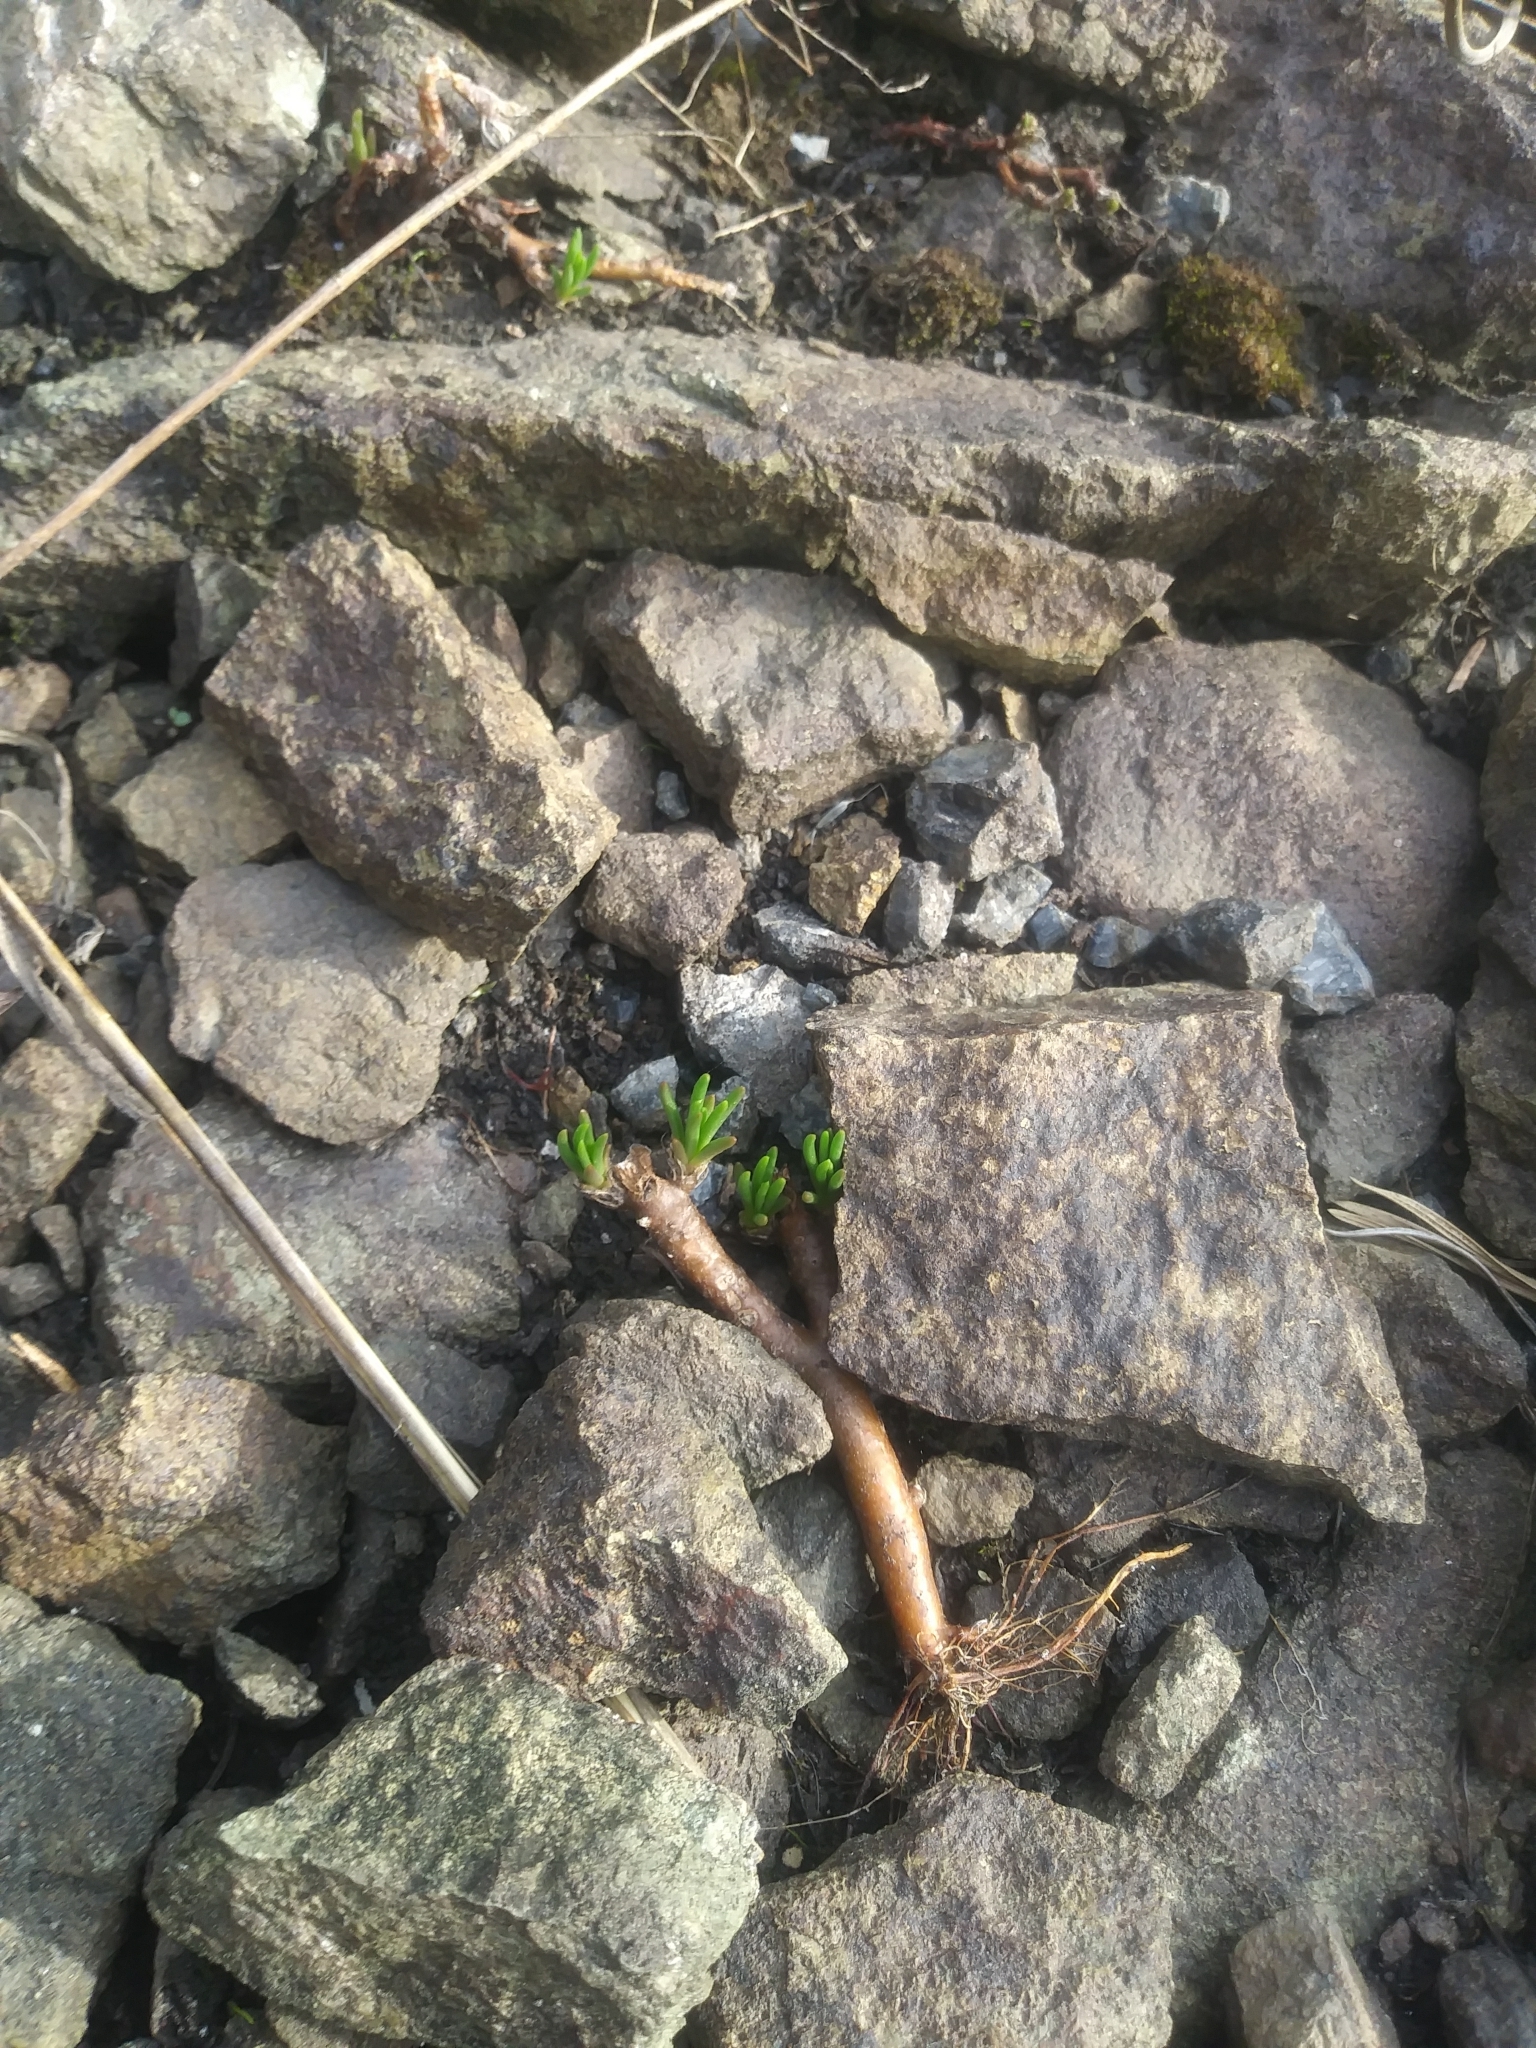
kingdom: Plantae
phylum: Tracheophyta
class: Magnoliopsida
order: Caryophyllales
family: Montiaceae
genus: Phemeranthus
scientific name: Phemeranthus teretifolius
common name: Quill fameflower
